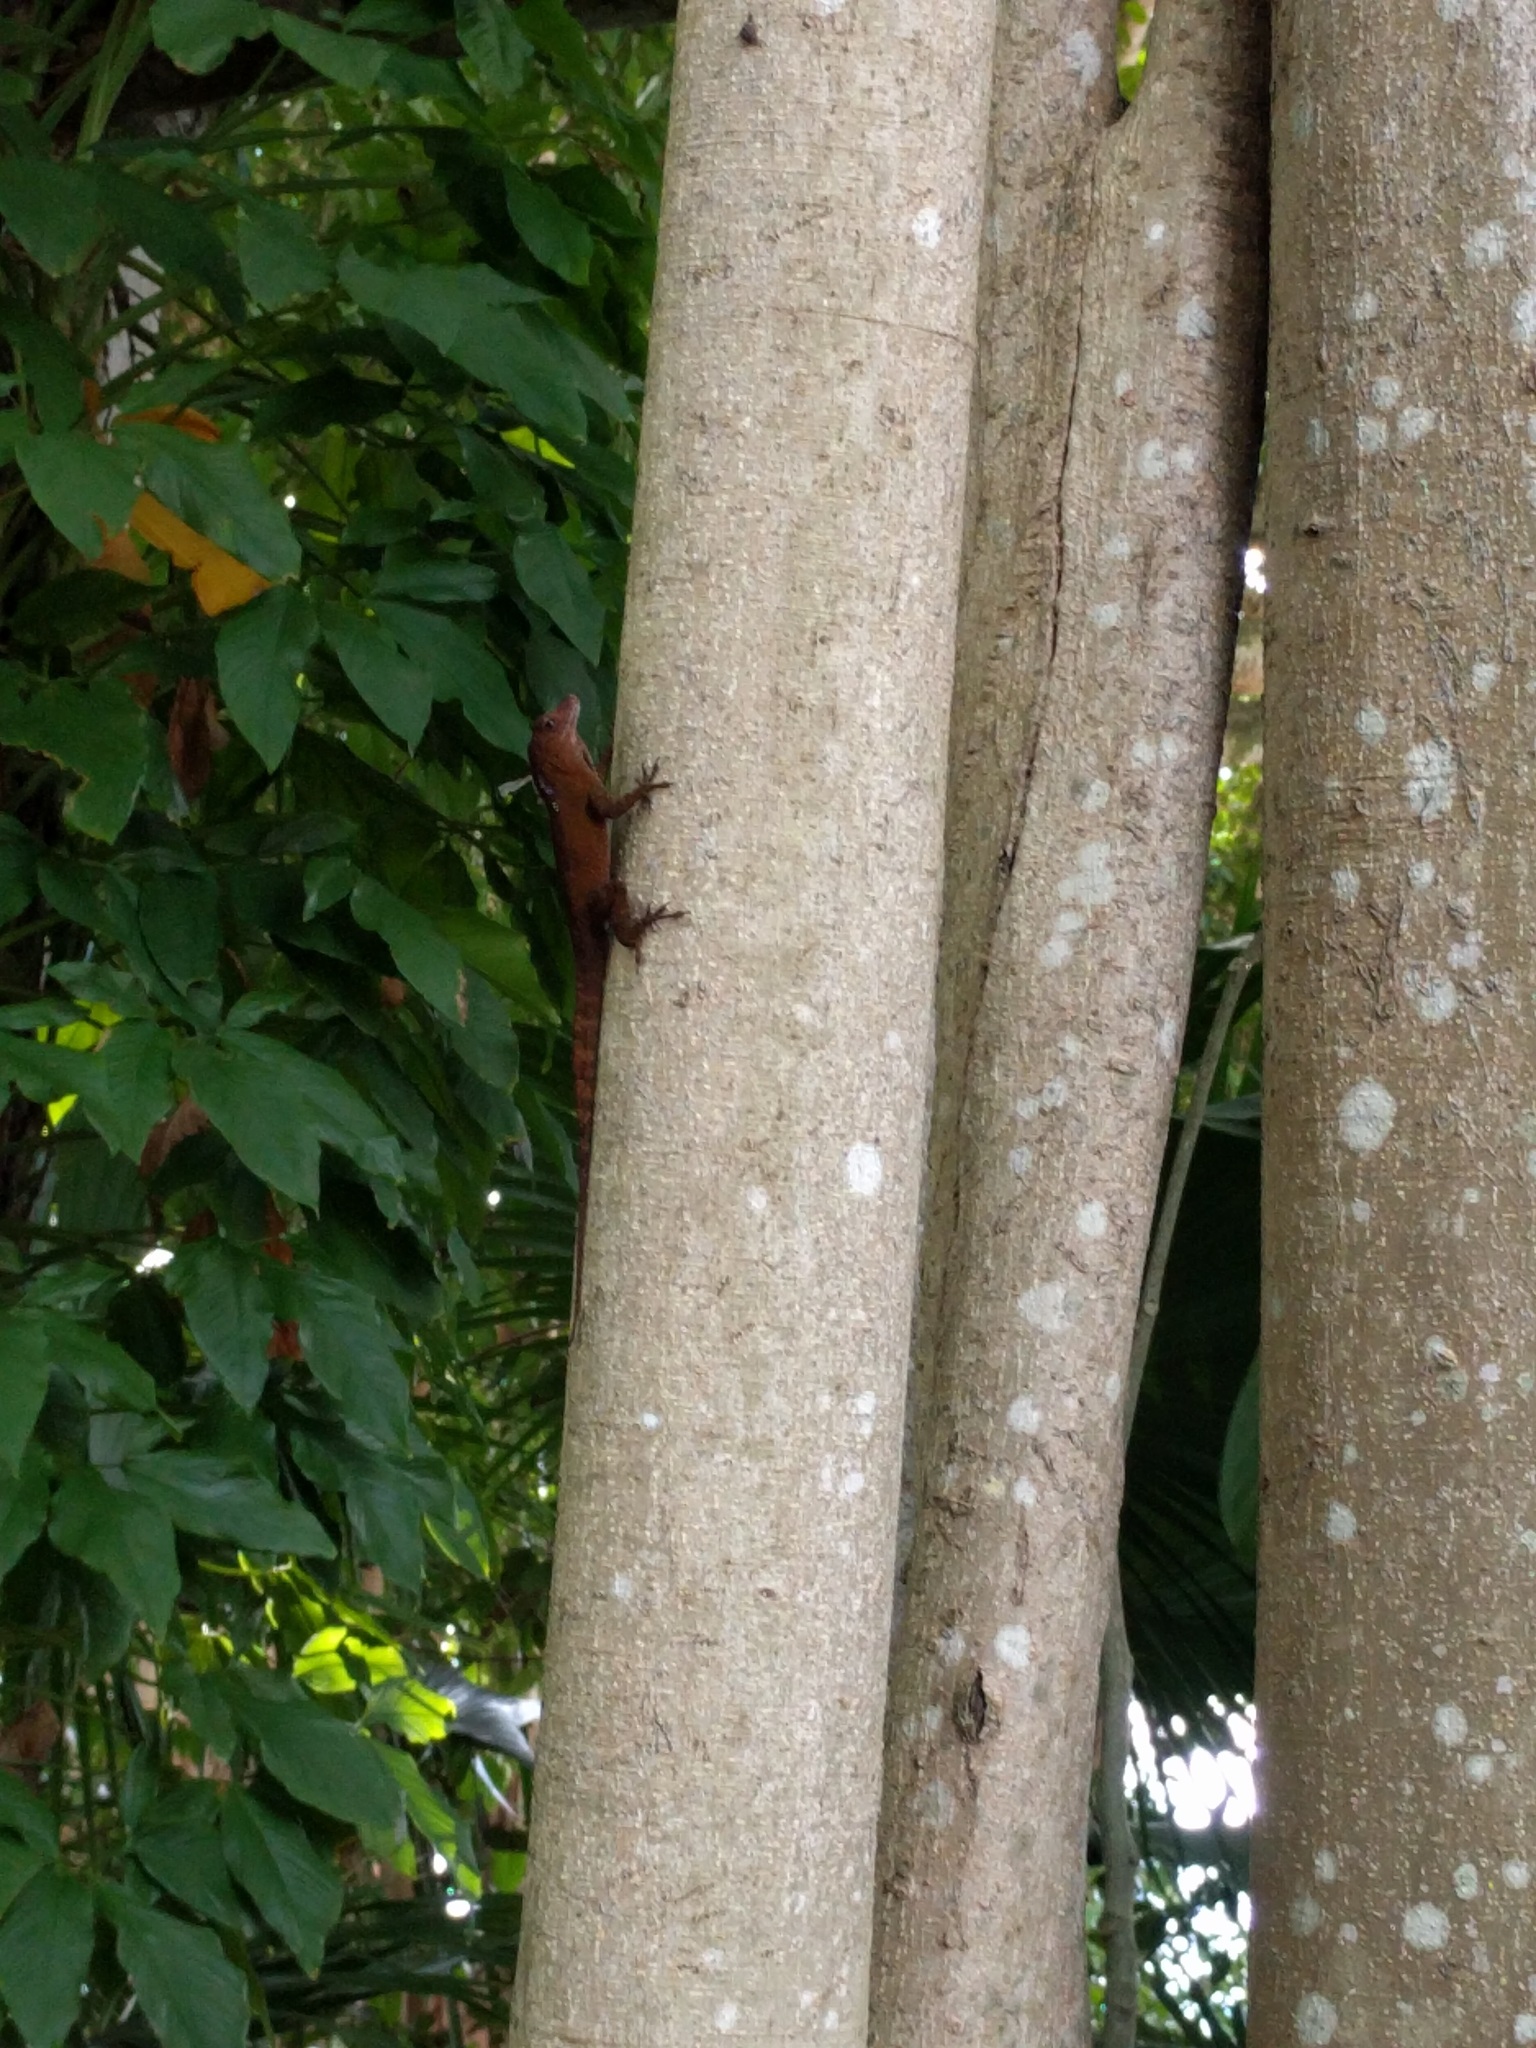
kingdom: Animalia
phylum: Chordata
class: Squamata
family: Dactyloidae
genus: Anolis
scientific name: Anolis cristatellus
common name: Crested anole
